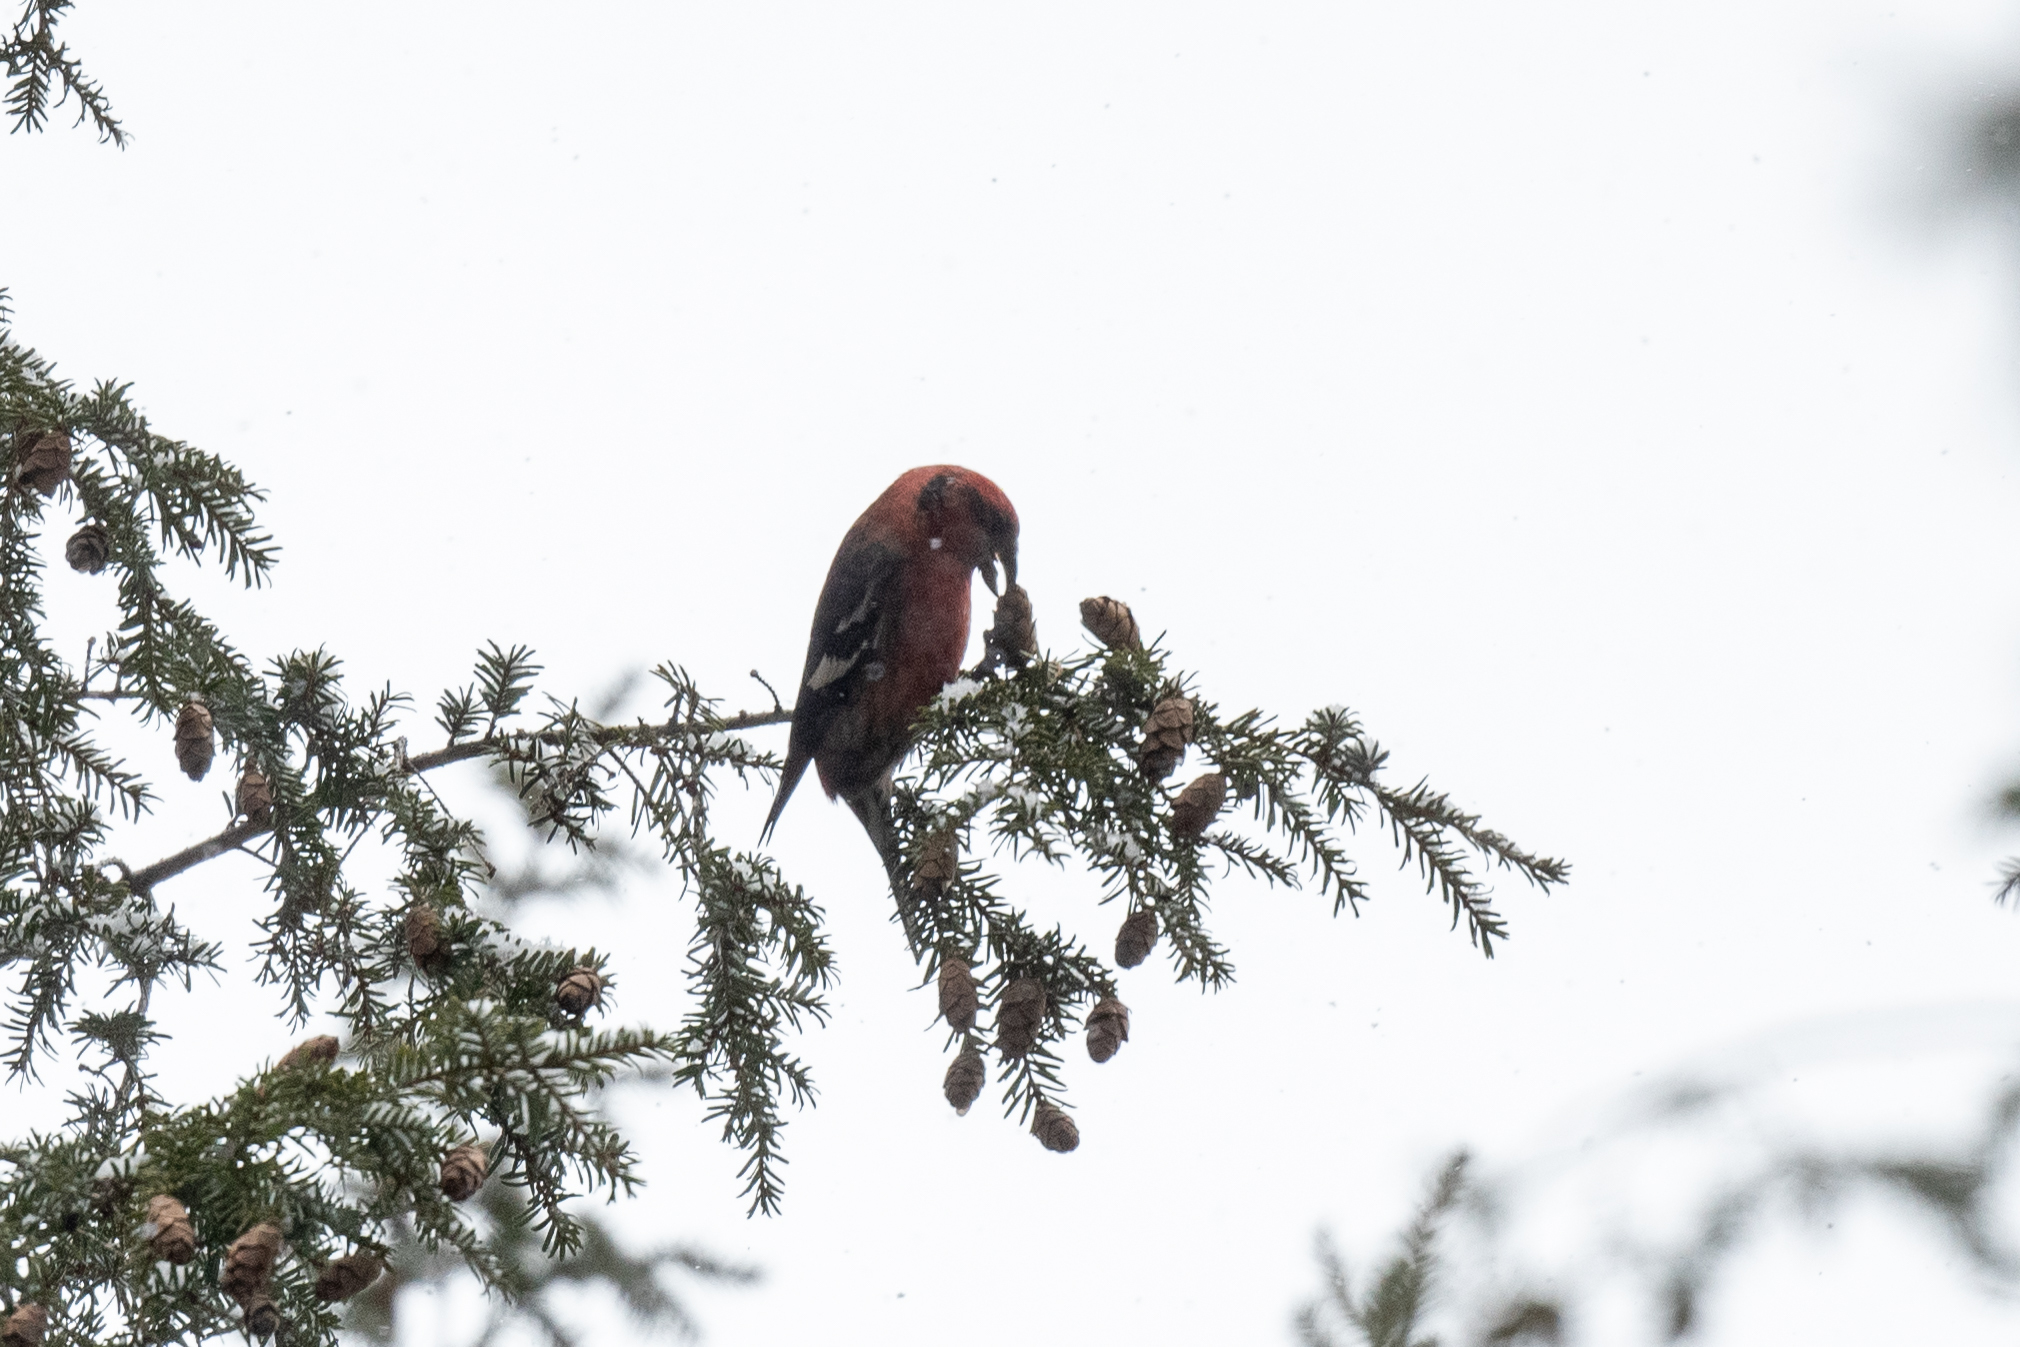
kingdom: Animalia
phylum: Chordata
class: Aves
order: Passeriformes
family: Fringillidae
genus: Loxia
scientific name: Loxia leucoptera
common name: Two-barred crossbill
